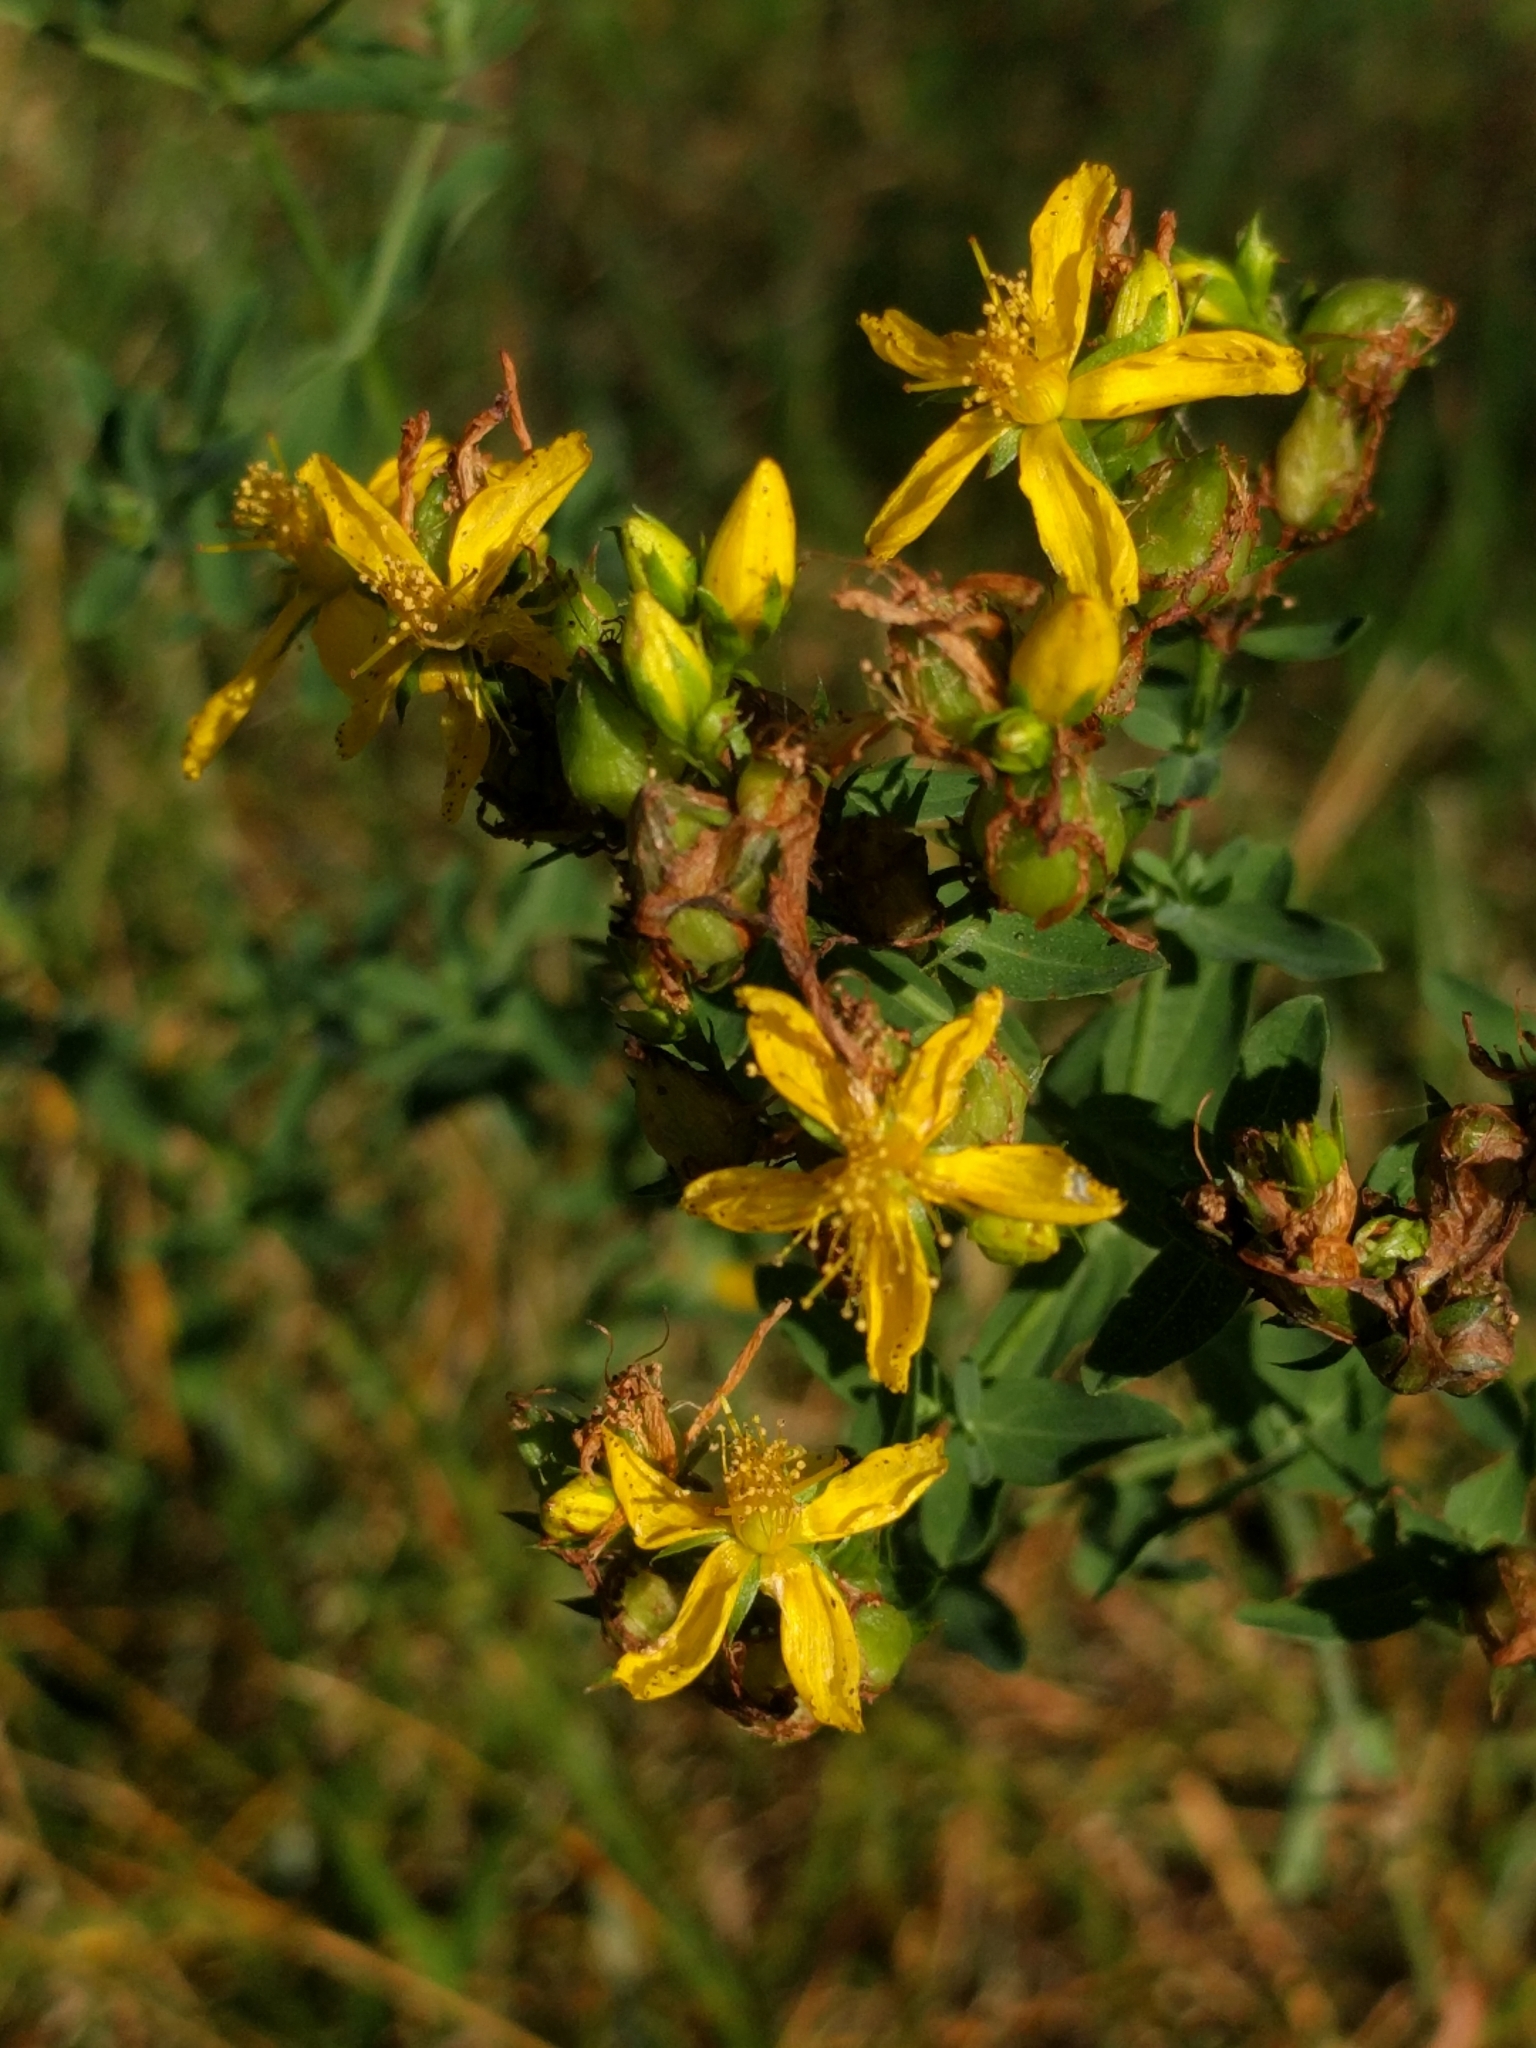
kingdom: Plantae
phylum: Tracheophyta
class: Magnoliopsida
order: Malpighiales
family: Hypericaceae
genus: Hypericum
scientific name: Hypericum perforatum
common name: Common st. johnswort
